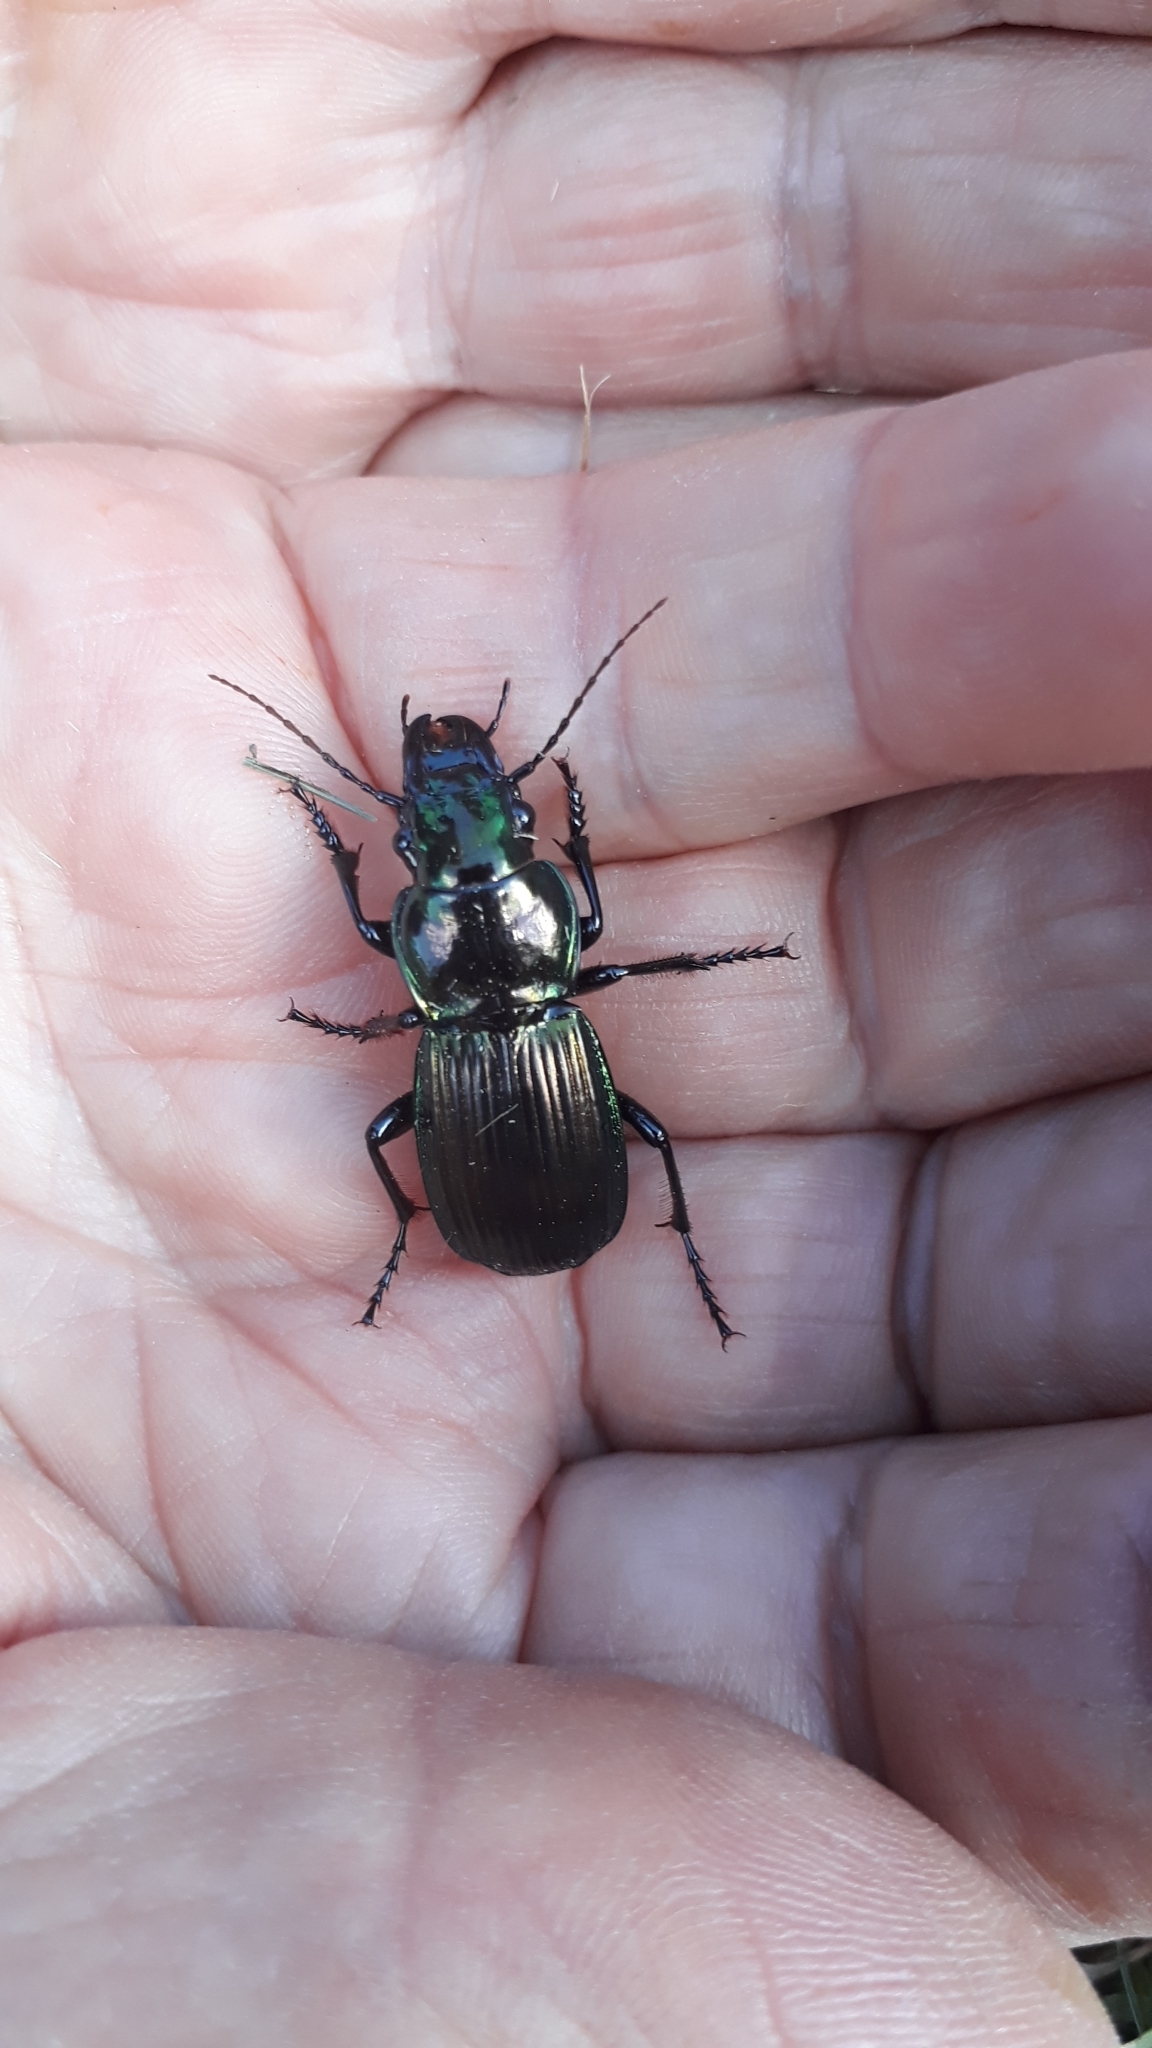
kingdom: Animalia
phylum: Arthropoda
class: Insecta
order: Coleoptera
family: Carabidae
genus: Megadromus
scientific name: Megadromus antarcticus
